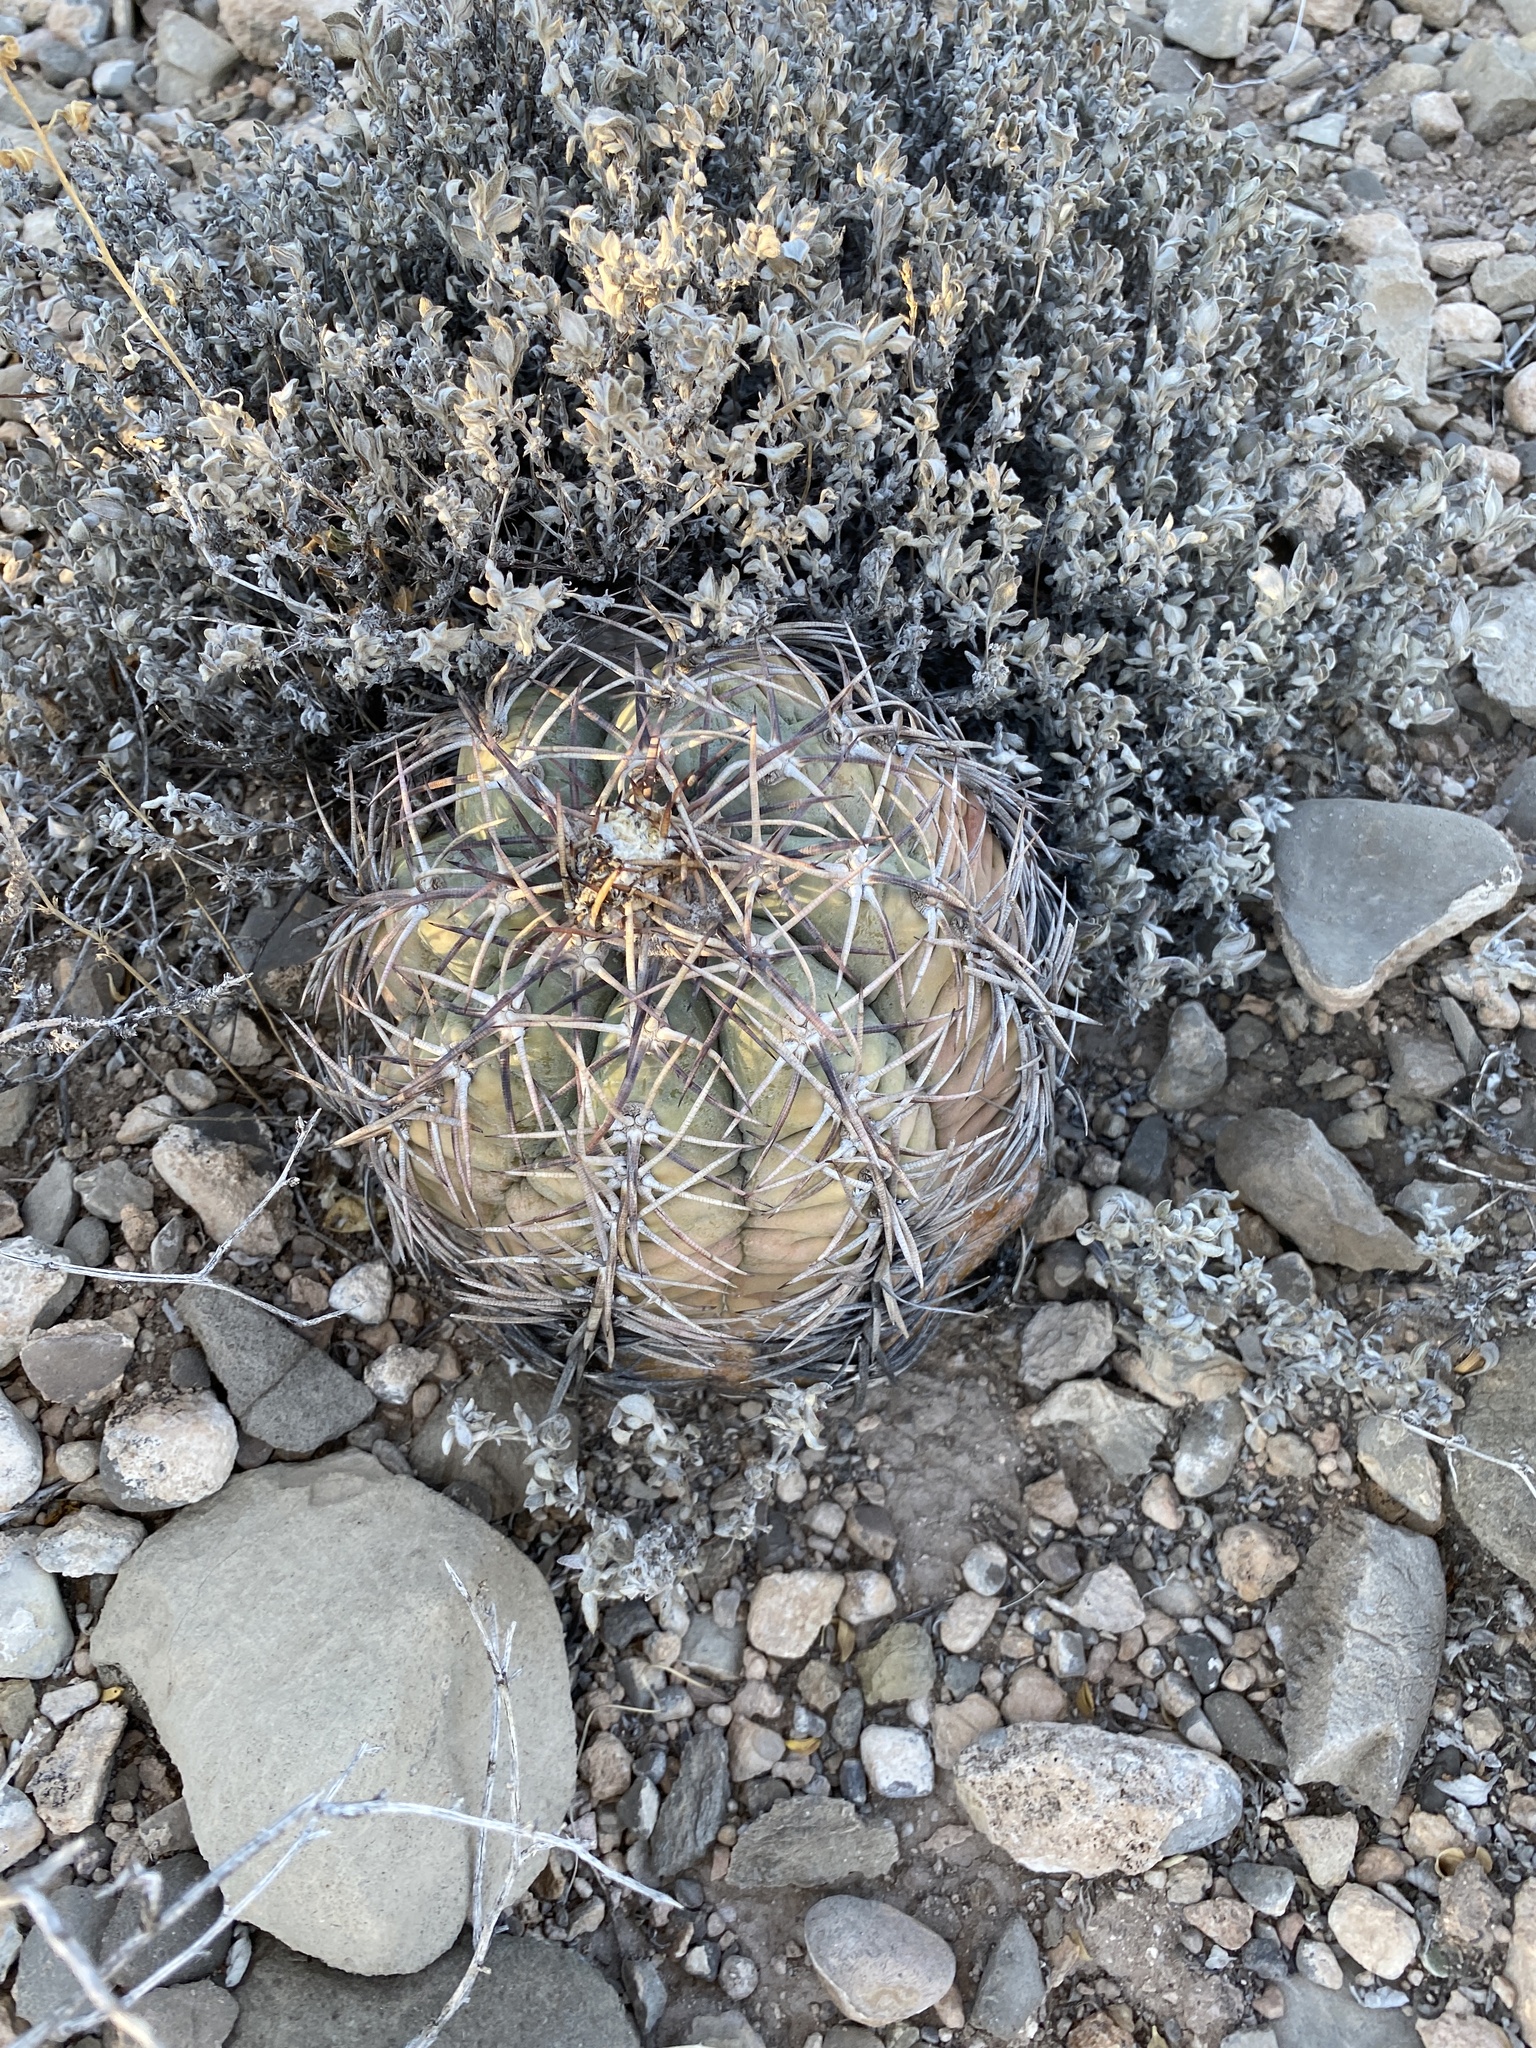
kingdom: Plantae
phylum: Tracheophyta
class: Magnoliopsida
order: Caryophyllales
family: Cactaceae
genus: Echinocactus
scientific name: Echinocactus horizonthalonius
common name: Devilshead
